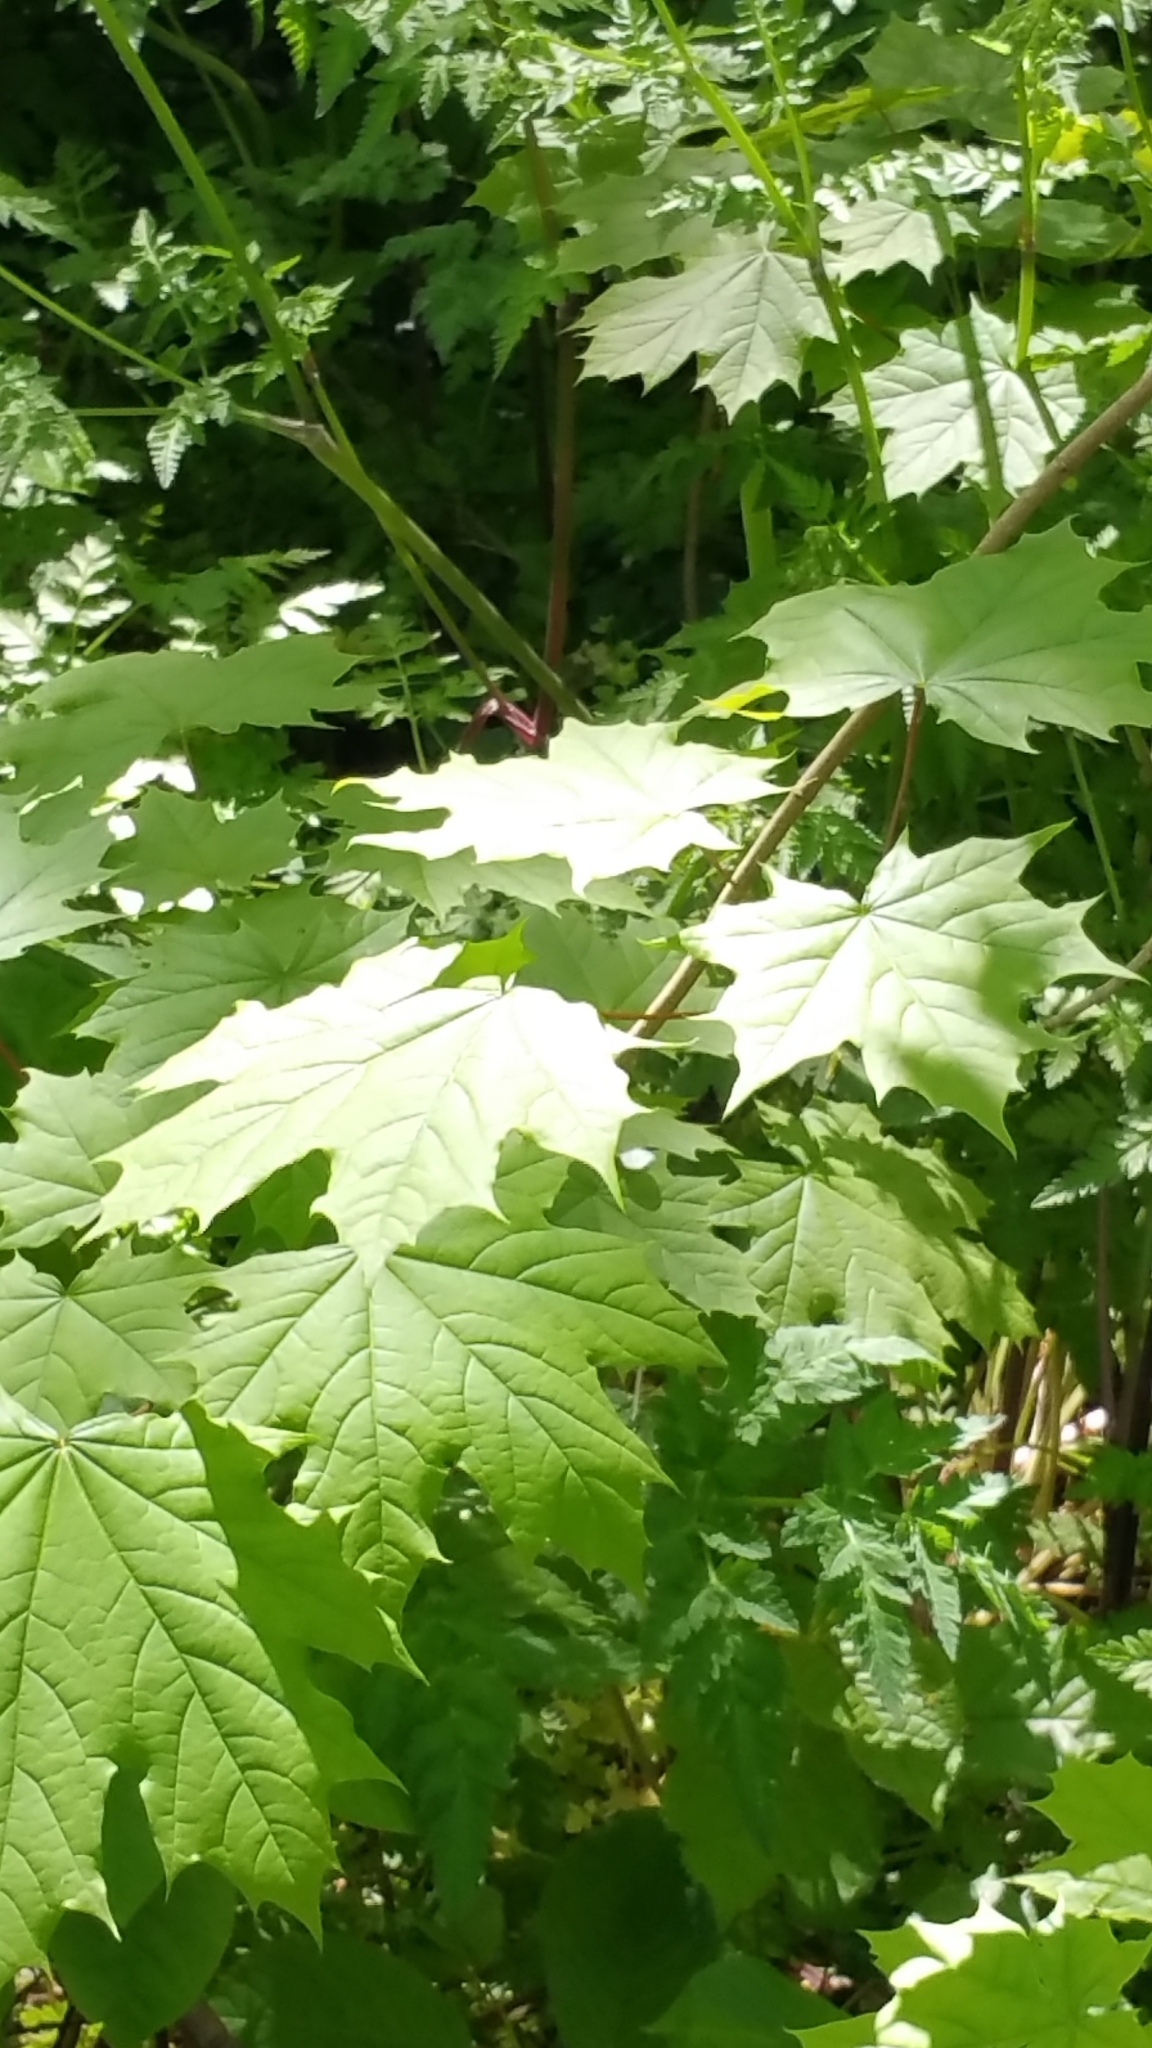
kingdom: Plantae
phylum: Tracheophyta
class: Magnoliopsida
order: Sapindales
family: Sapindaceae
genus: Acer
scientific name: Acer platanoides
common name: Norway maple
